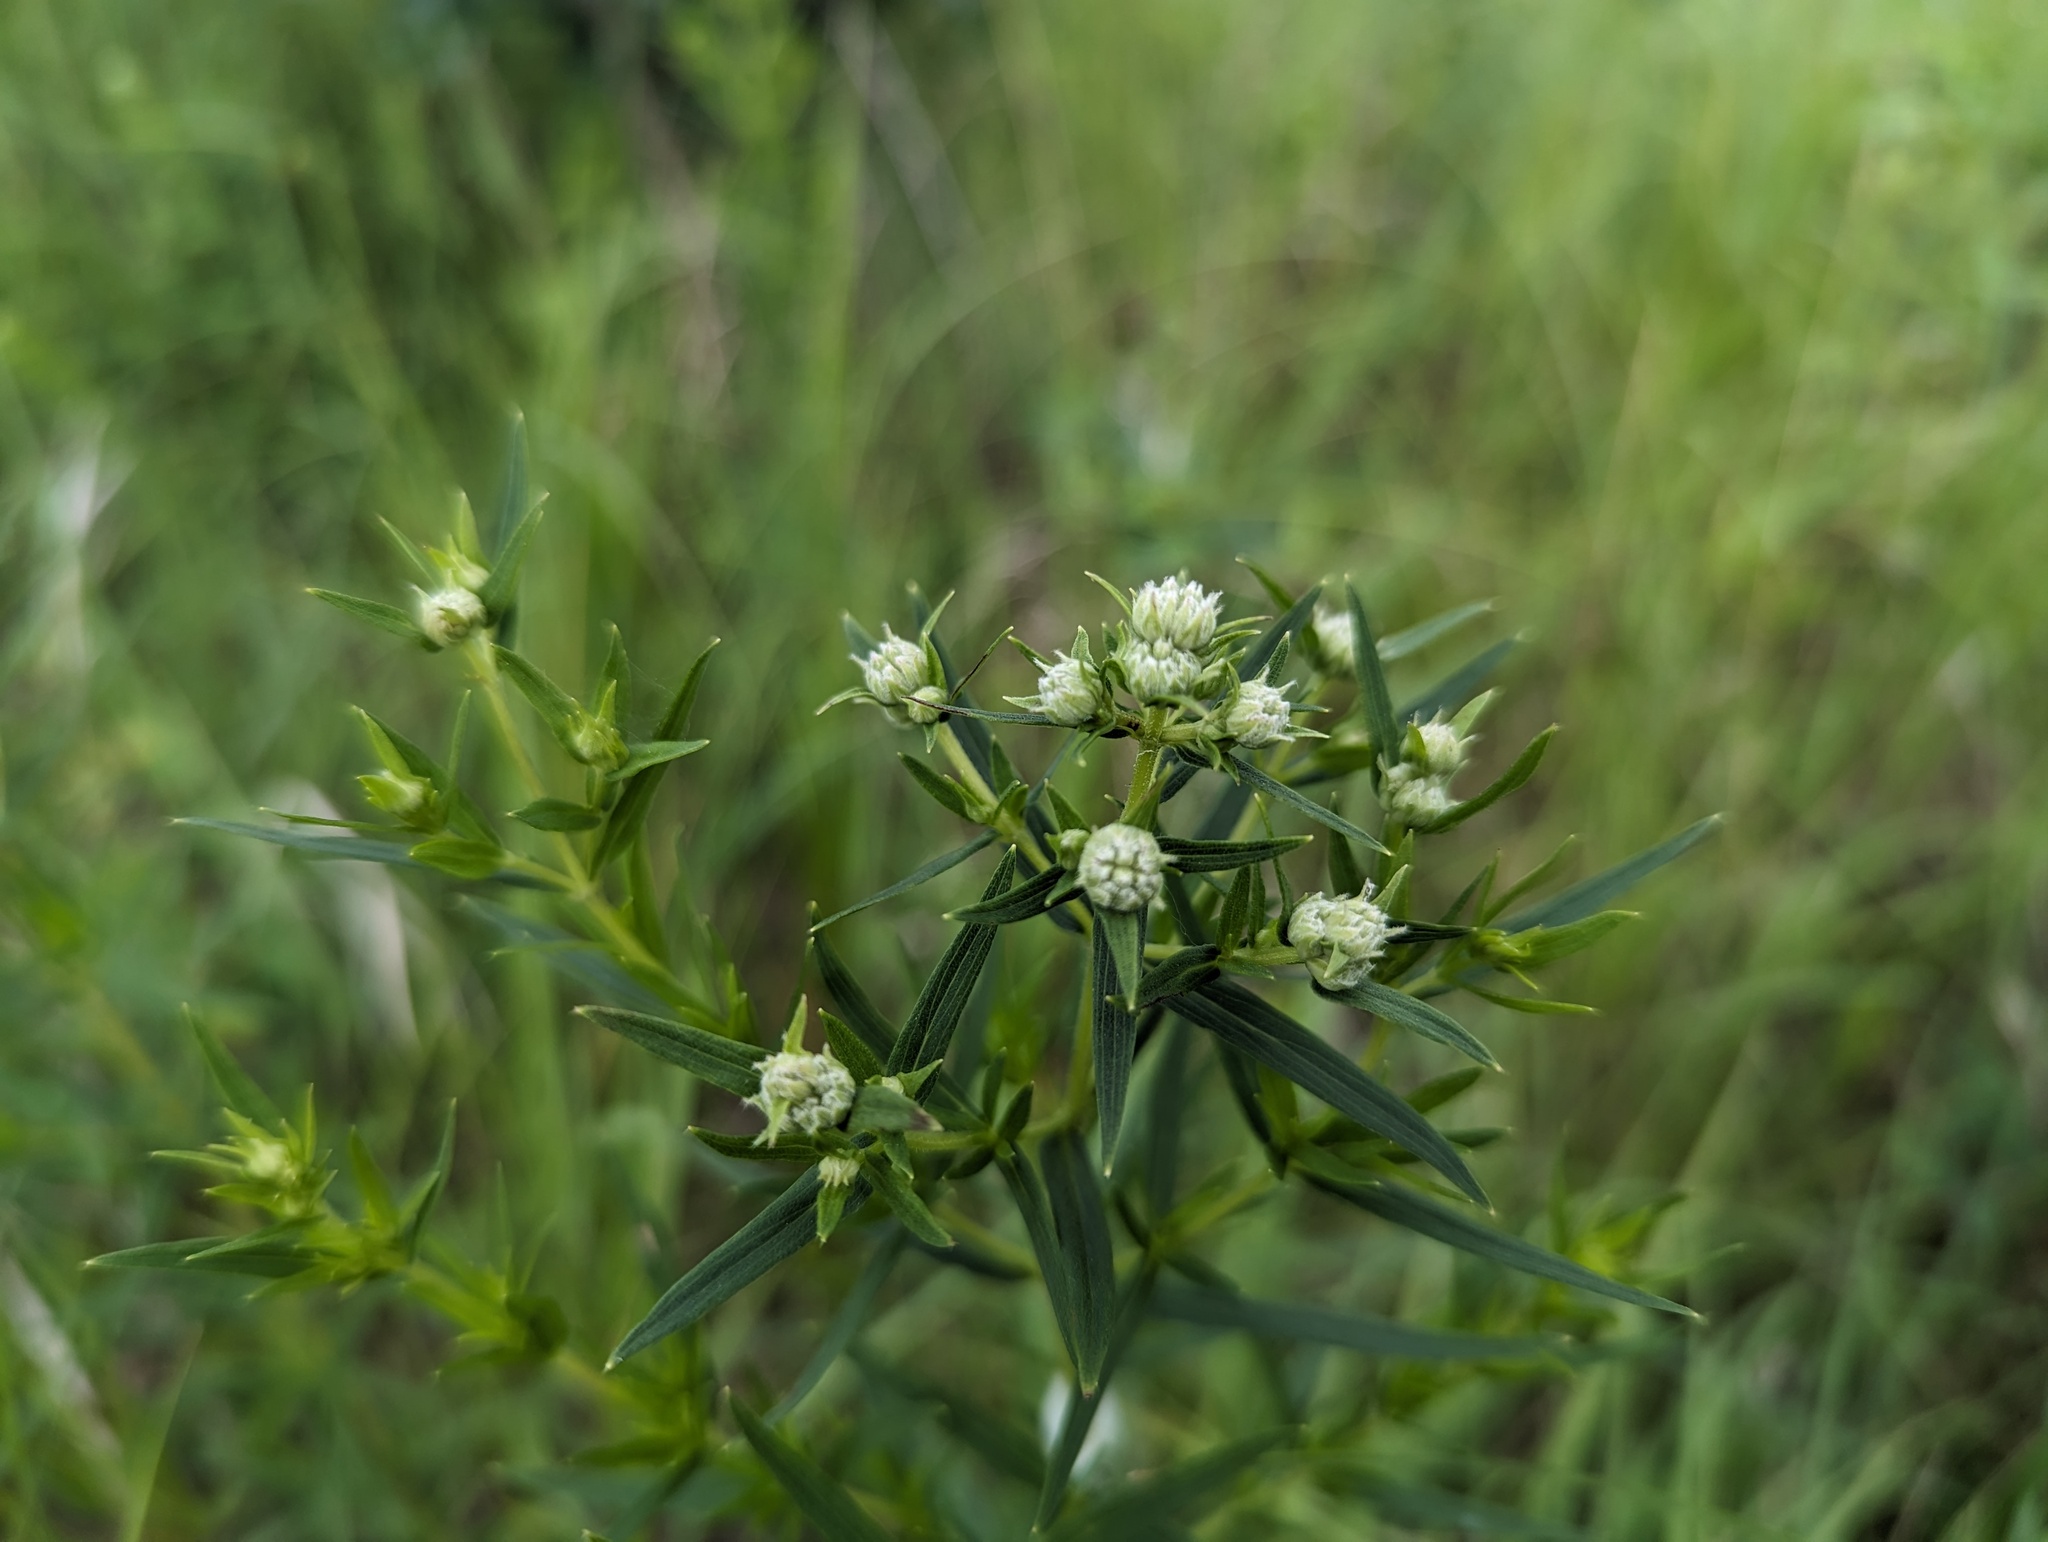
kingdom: Plantae
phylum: Tracheophyta
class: Magnoliopsida
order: Lamiales
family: Lamiaceae
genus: Pycnanthemum
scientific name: Pycnanthemum virginianum
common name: Virginia mountain-mint
